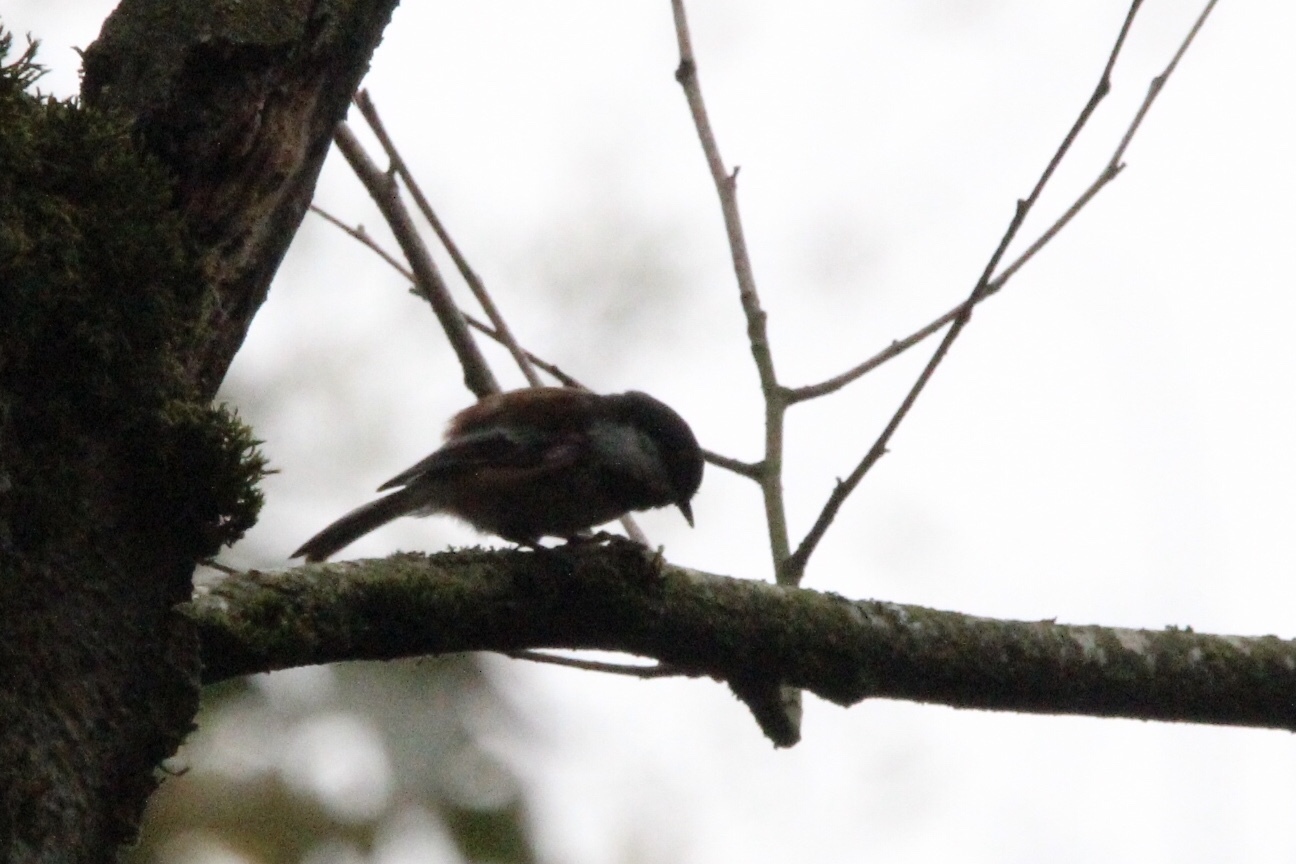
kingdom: Animalia
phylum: Chordata
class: Aves
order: Passeriformes
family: Paridae
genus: Poecile
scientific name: Poecile rufescens
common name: Chestnut-backed chickadee
